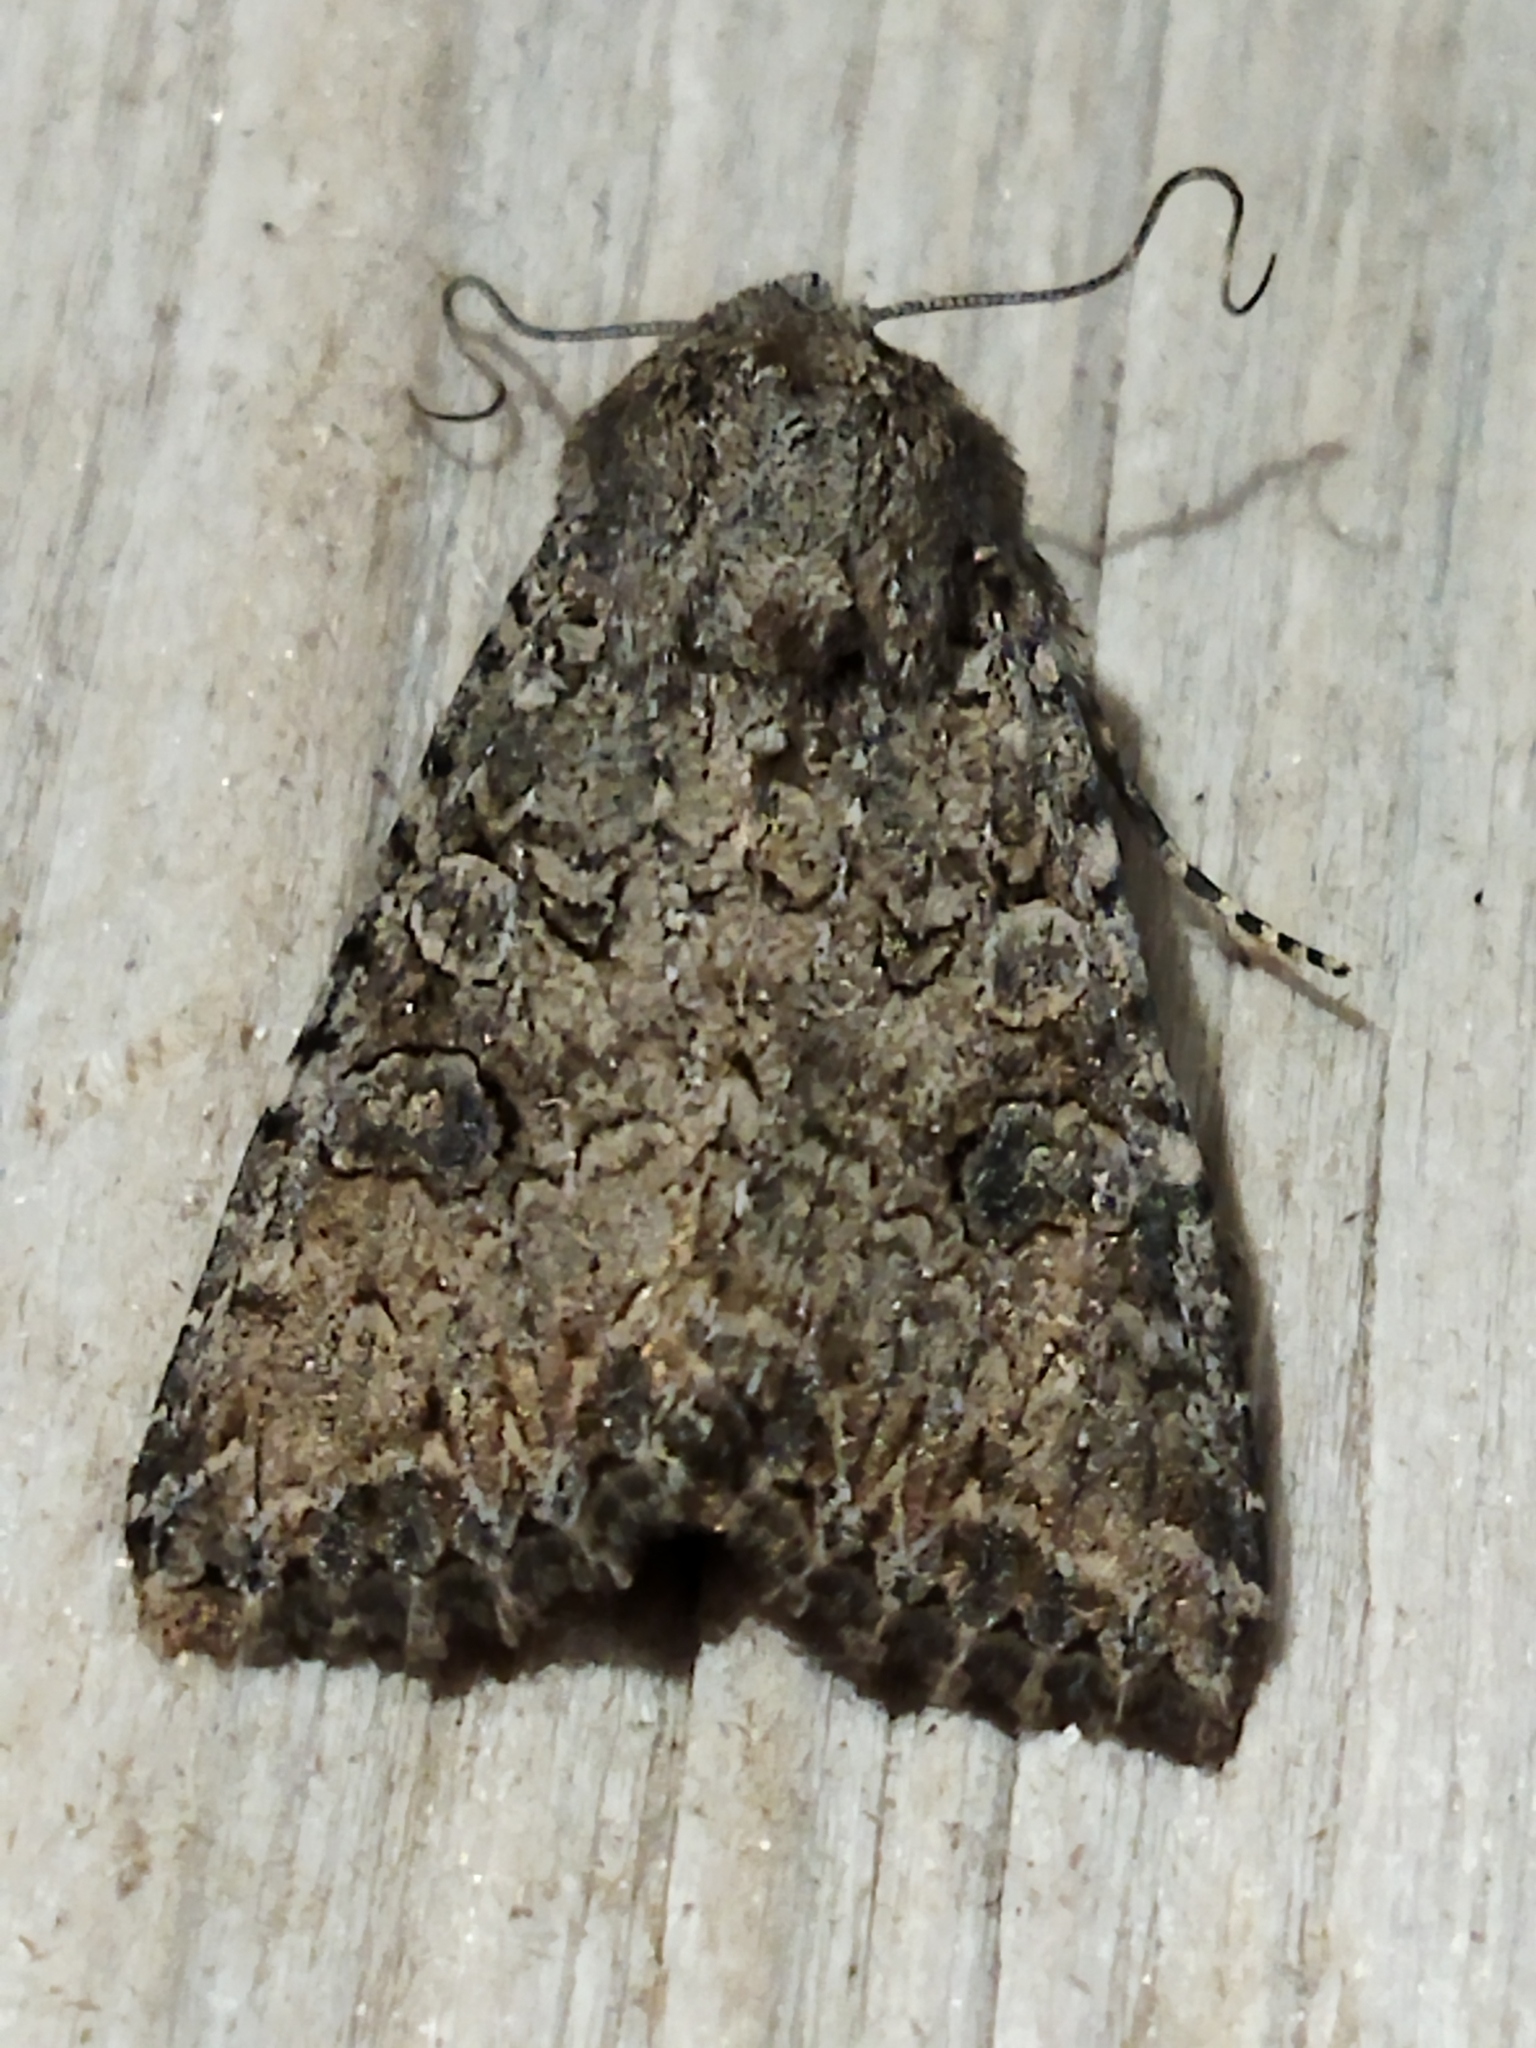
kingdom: Animalia
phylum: Arthropoda
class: Insecta
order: Lepidoptera
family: Noctuidae
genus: Anarta
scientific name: Anarta trifolii
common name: Clover cutworm moth
